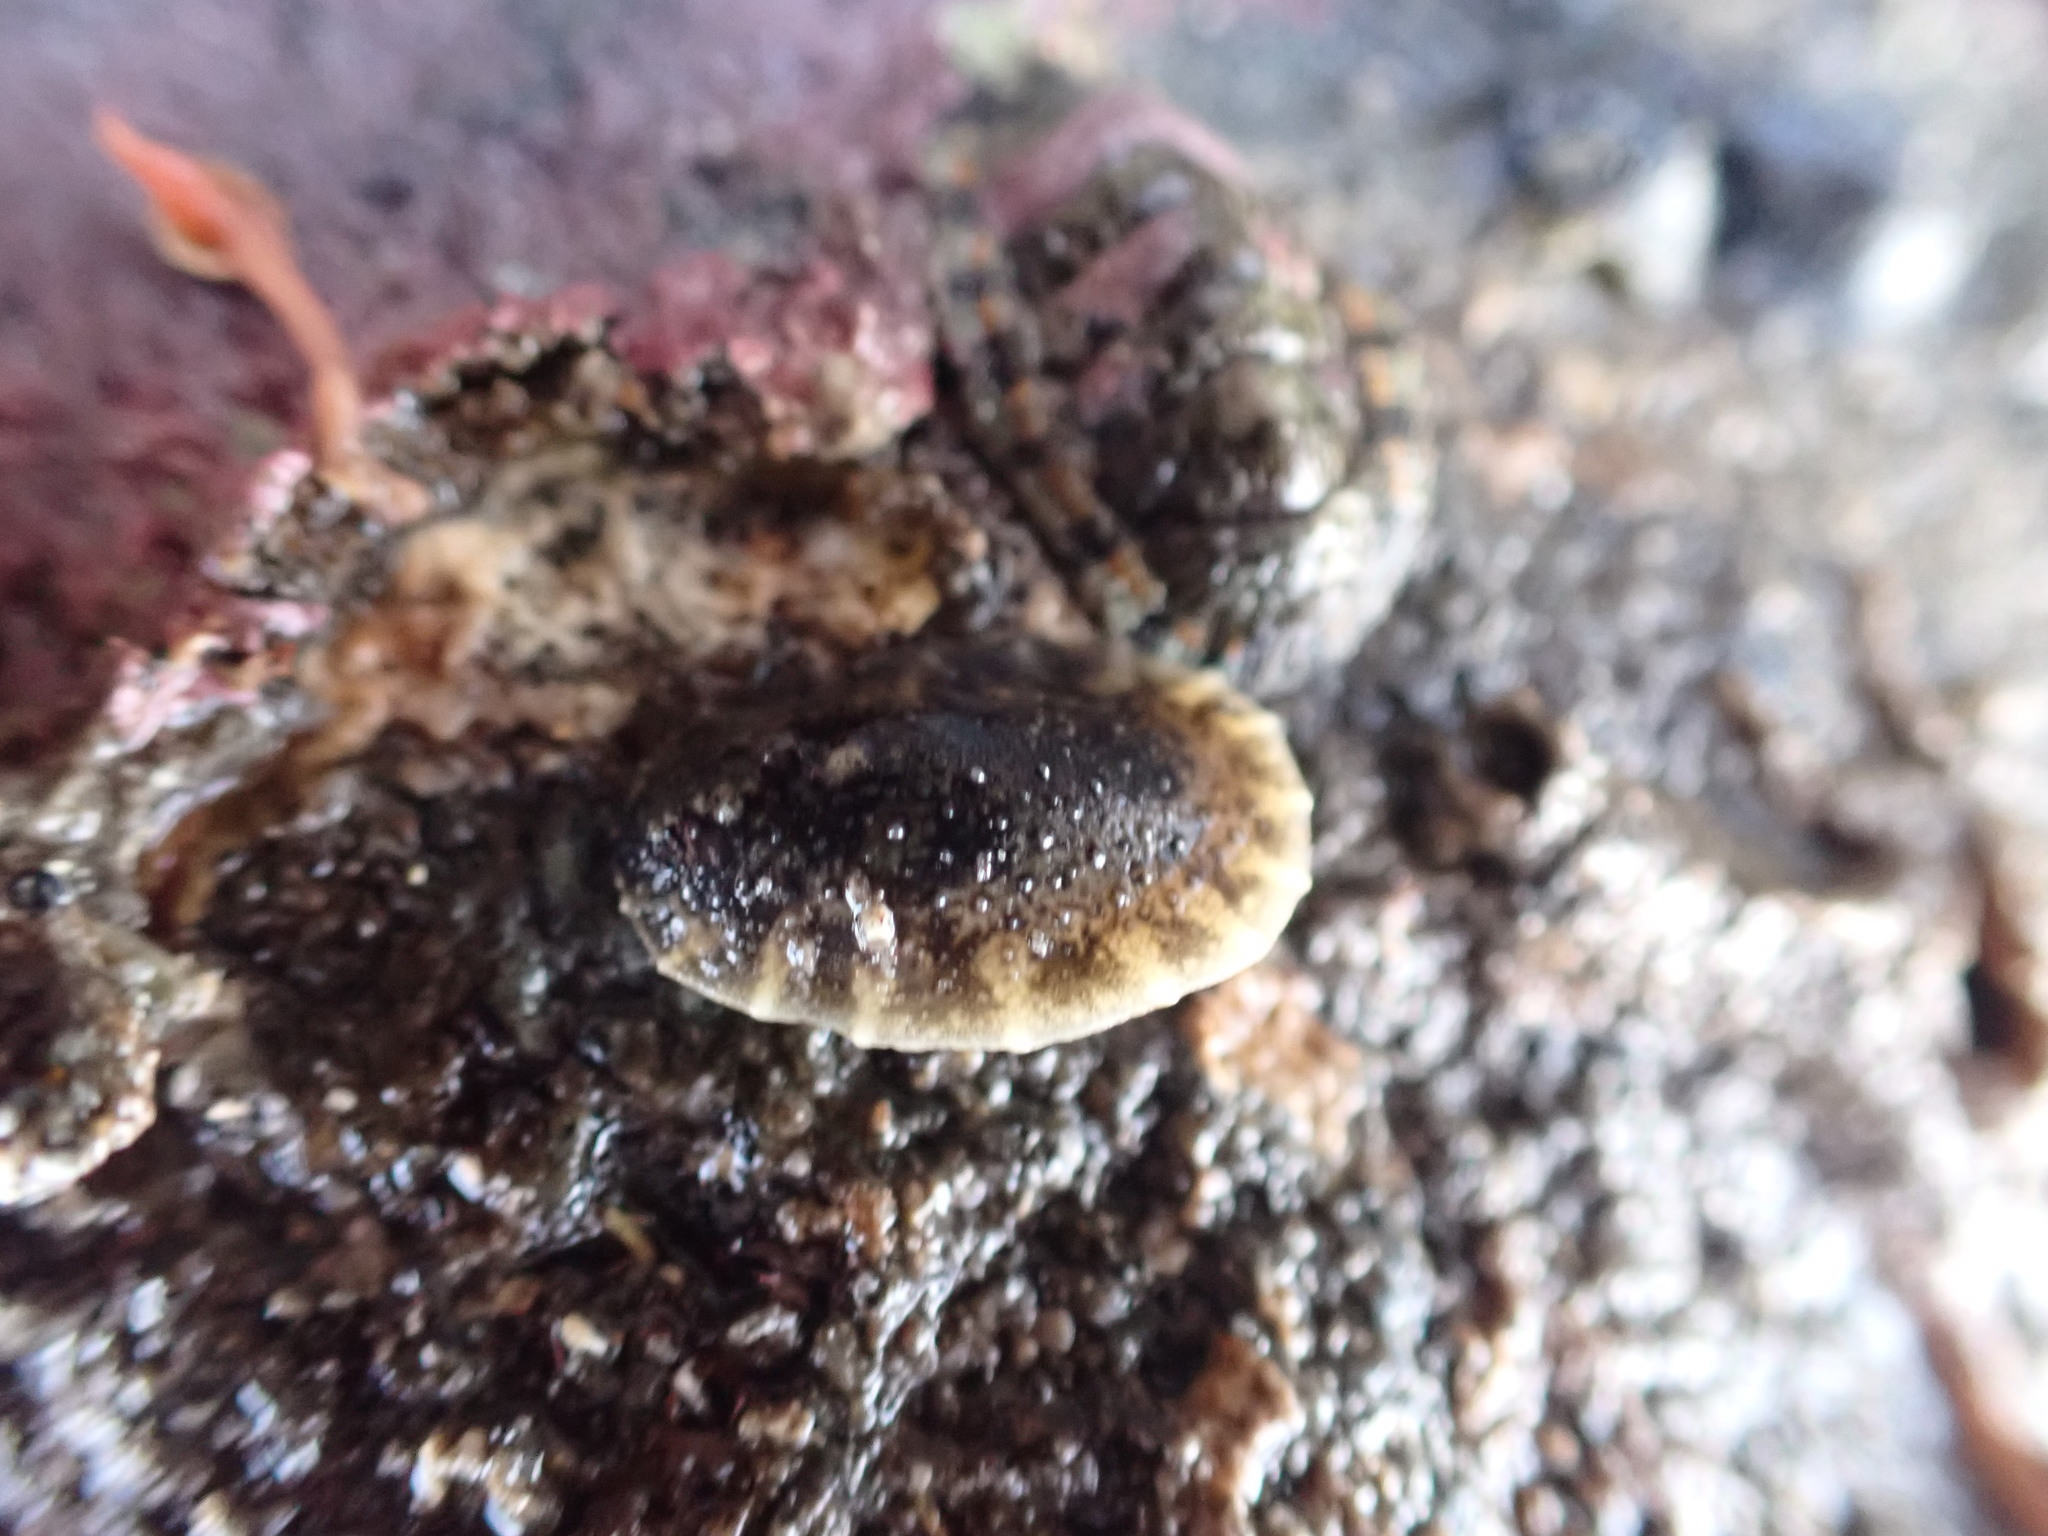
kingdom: Animalia
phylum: Mollusca
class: Gastropoda
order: Systellommatophora
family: Onchidiidae
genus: Onchidella
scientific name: Onchidella nigricans
